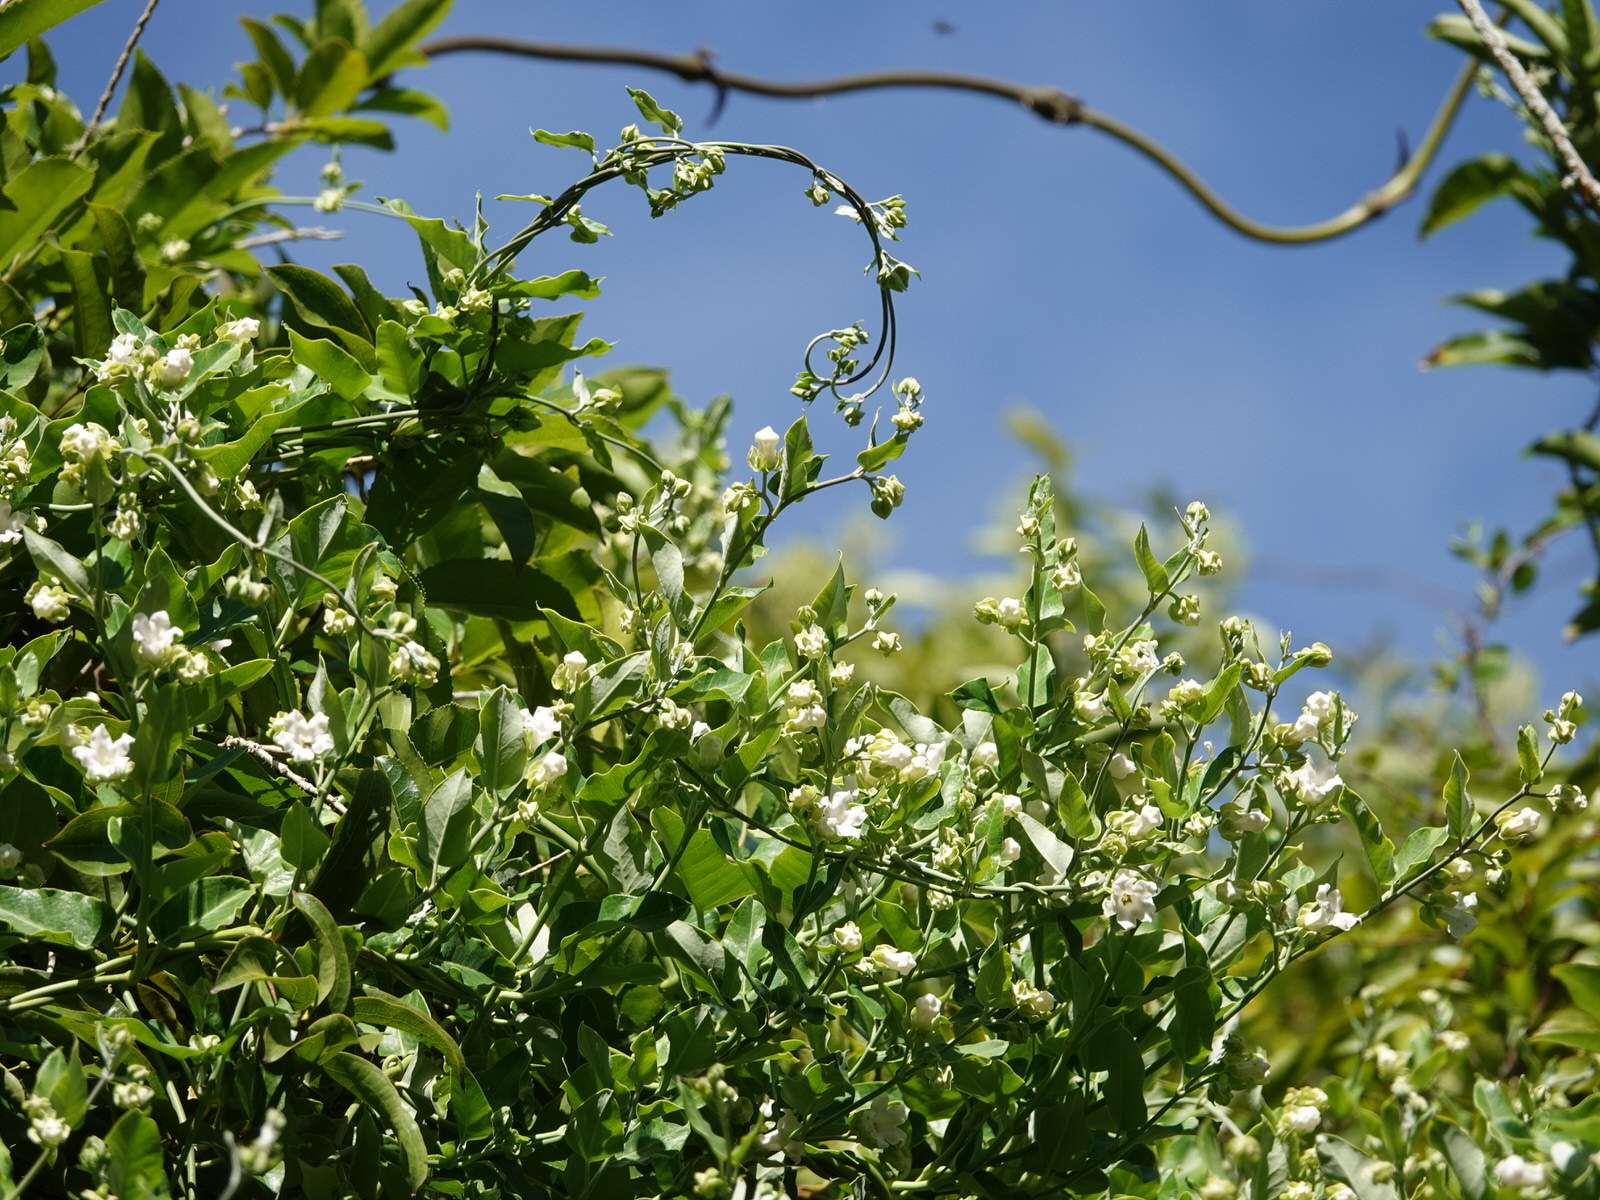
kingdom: Plantae
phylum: Tracheophyta
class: Magnoliopsida
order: Gentianales
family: Apocynaceae
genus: Araujia
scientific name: Araujia sericifera
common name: White bladderflower
